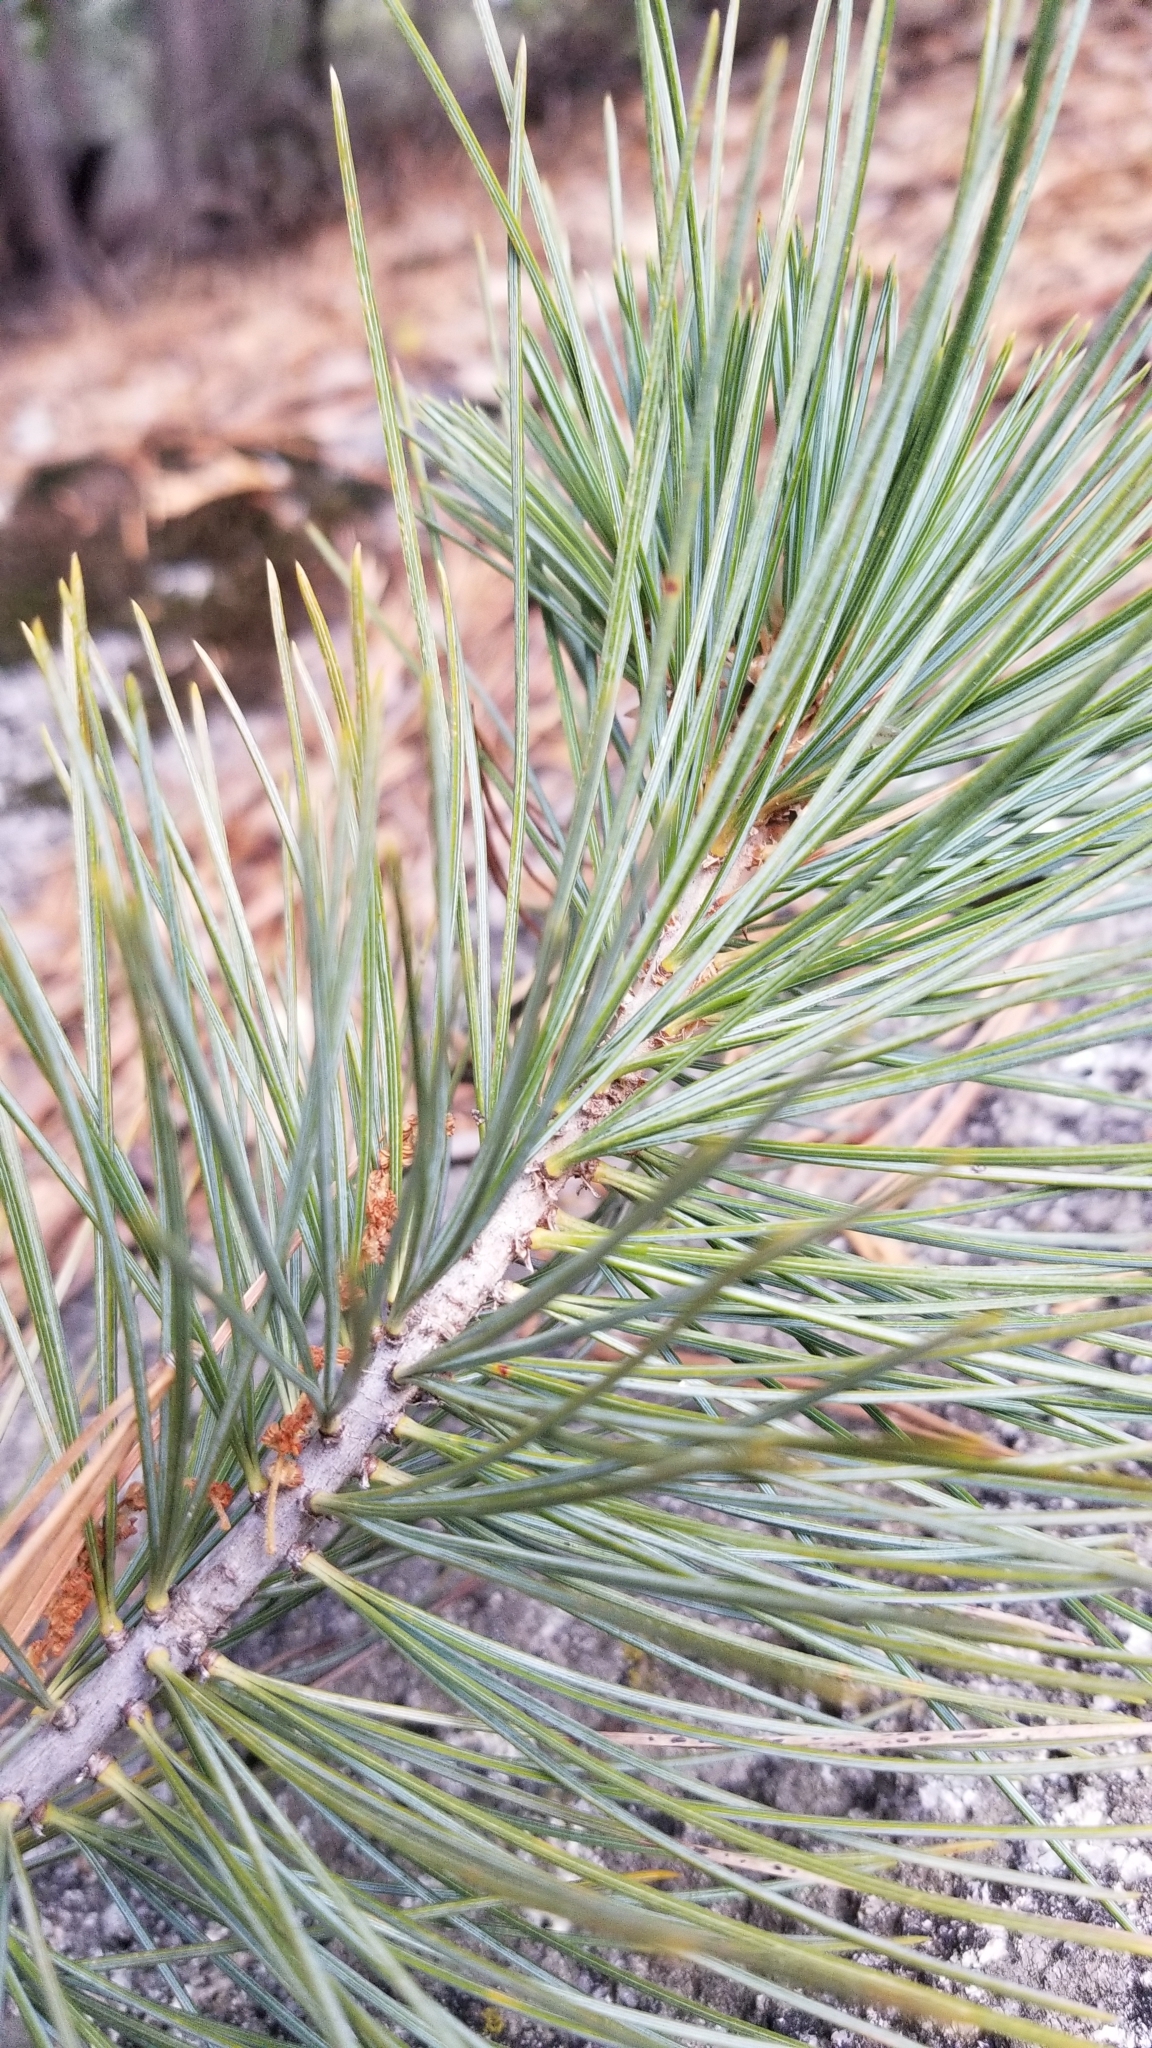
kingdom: Plantae
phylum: Tracheophyta
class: Pinopsida
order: Pinales
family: Pinaceae
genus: Pinus
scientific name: Pinus lambertiana
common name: Sugar pine
